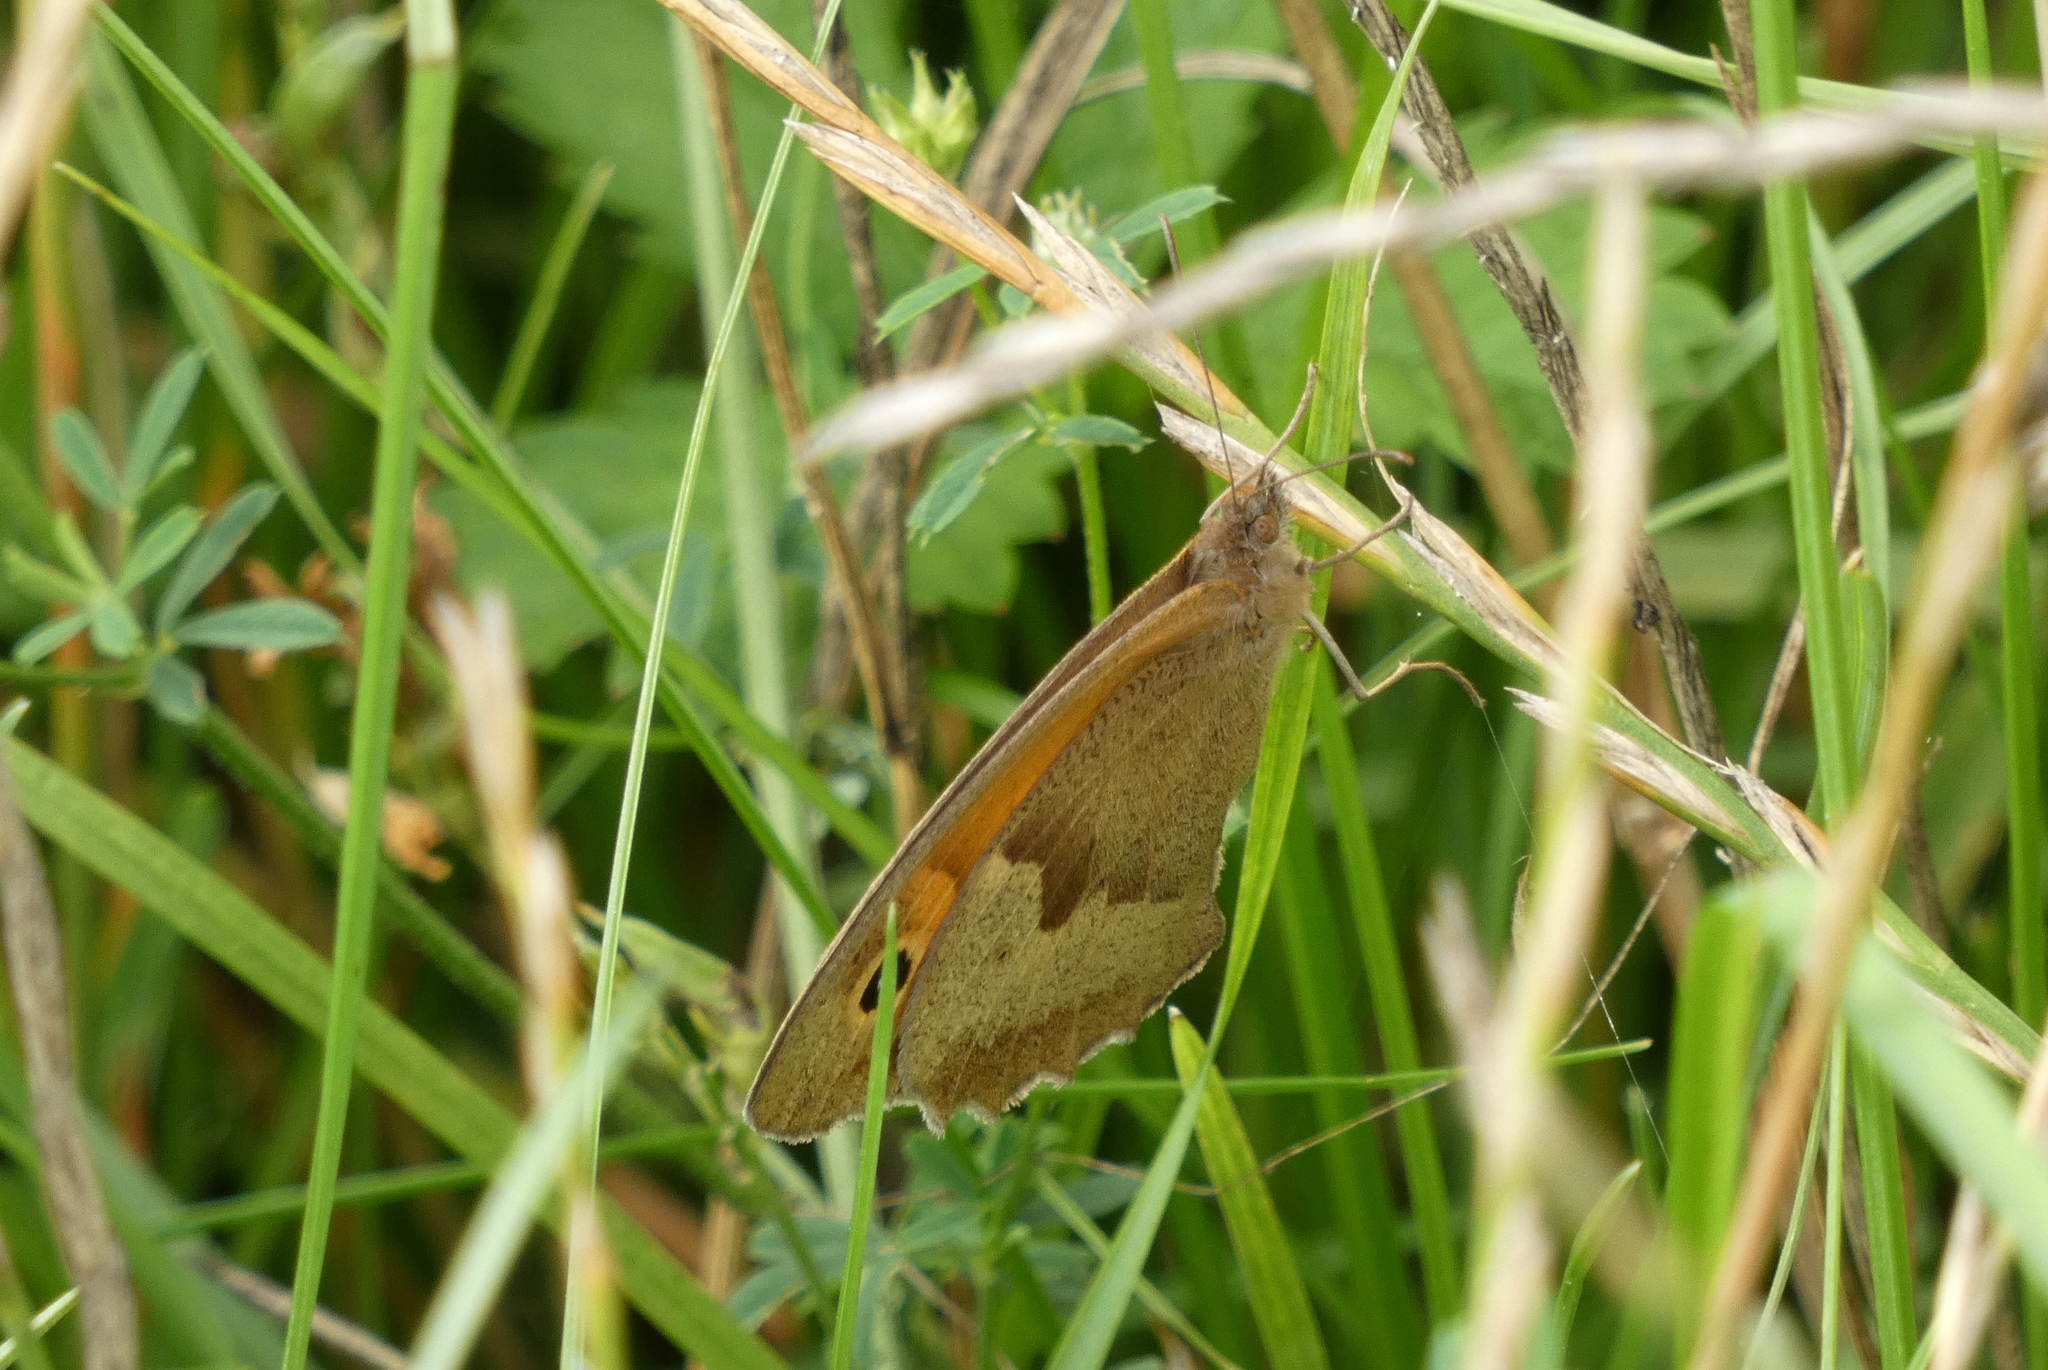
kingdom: Animalia
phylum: Arthropoda
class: Insecta
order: Lepidoptera
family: Nymphalidae
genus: Maniola
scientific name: Maniola jurtina
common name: Meadow brown
